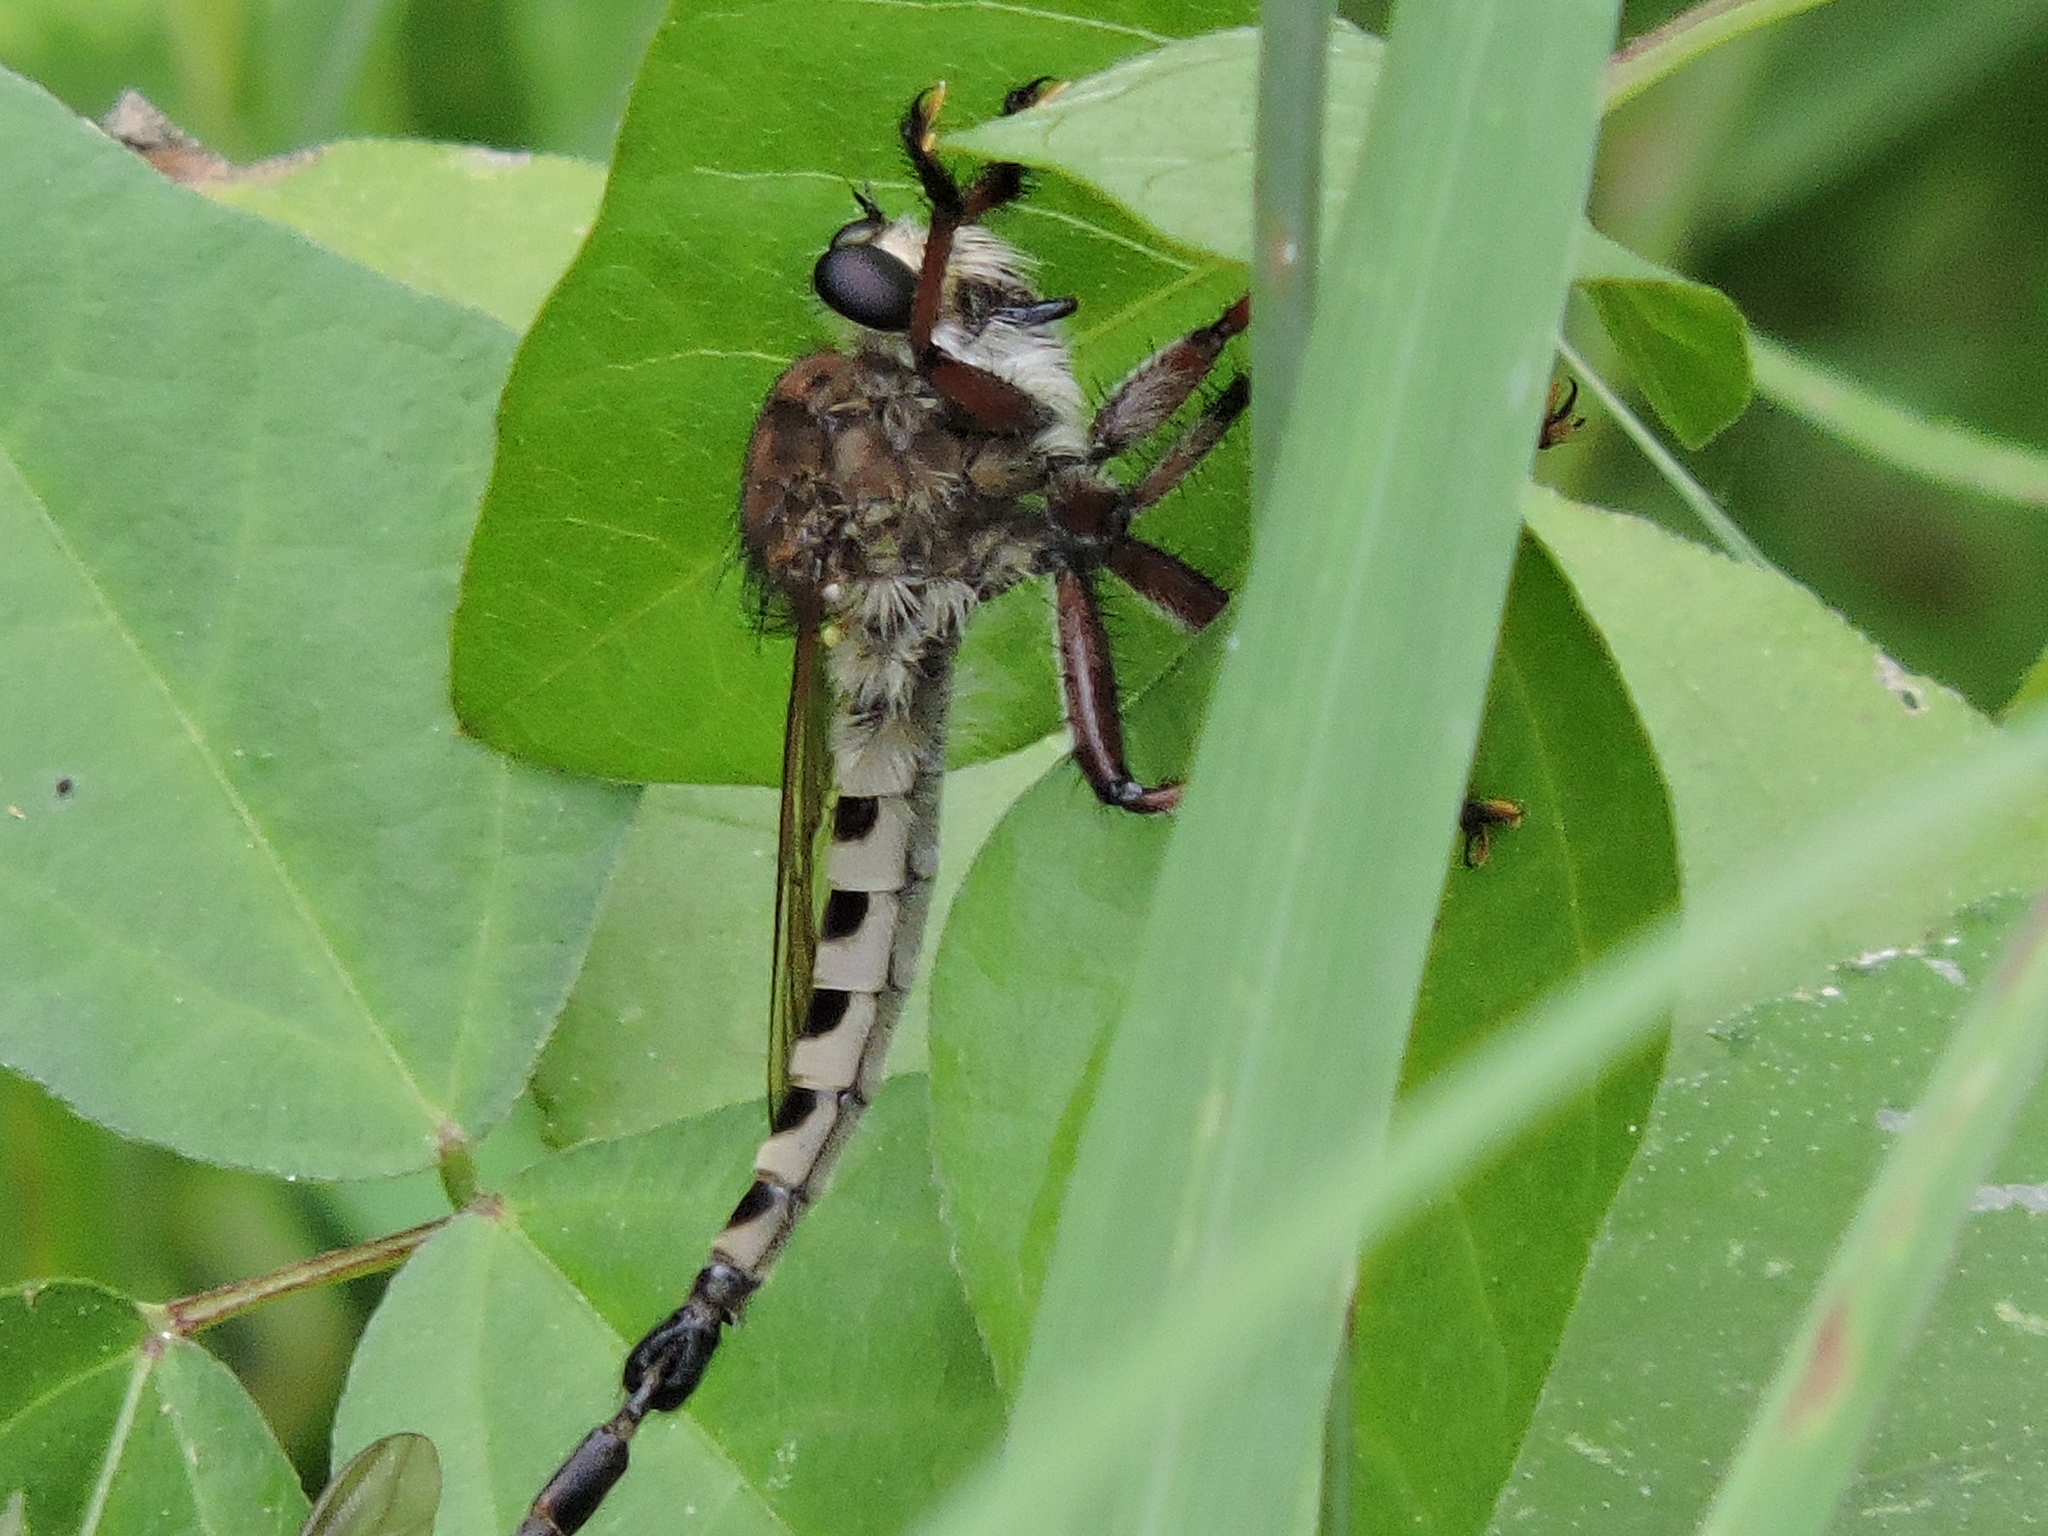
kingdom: Animalia
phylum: Arthropoda
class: Insecta
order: Diptera
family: Asilidae
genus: Promachus
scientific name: Promachus hinei
